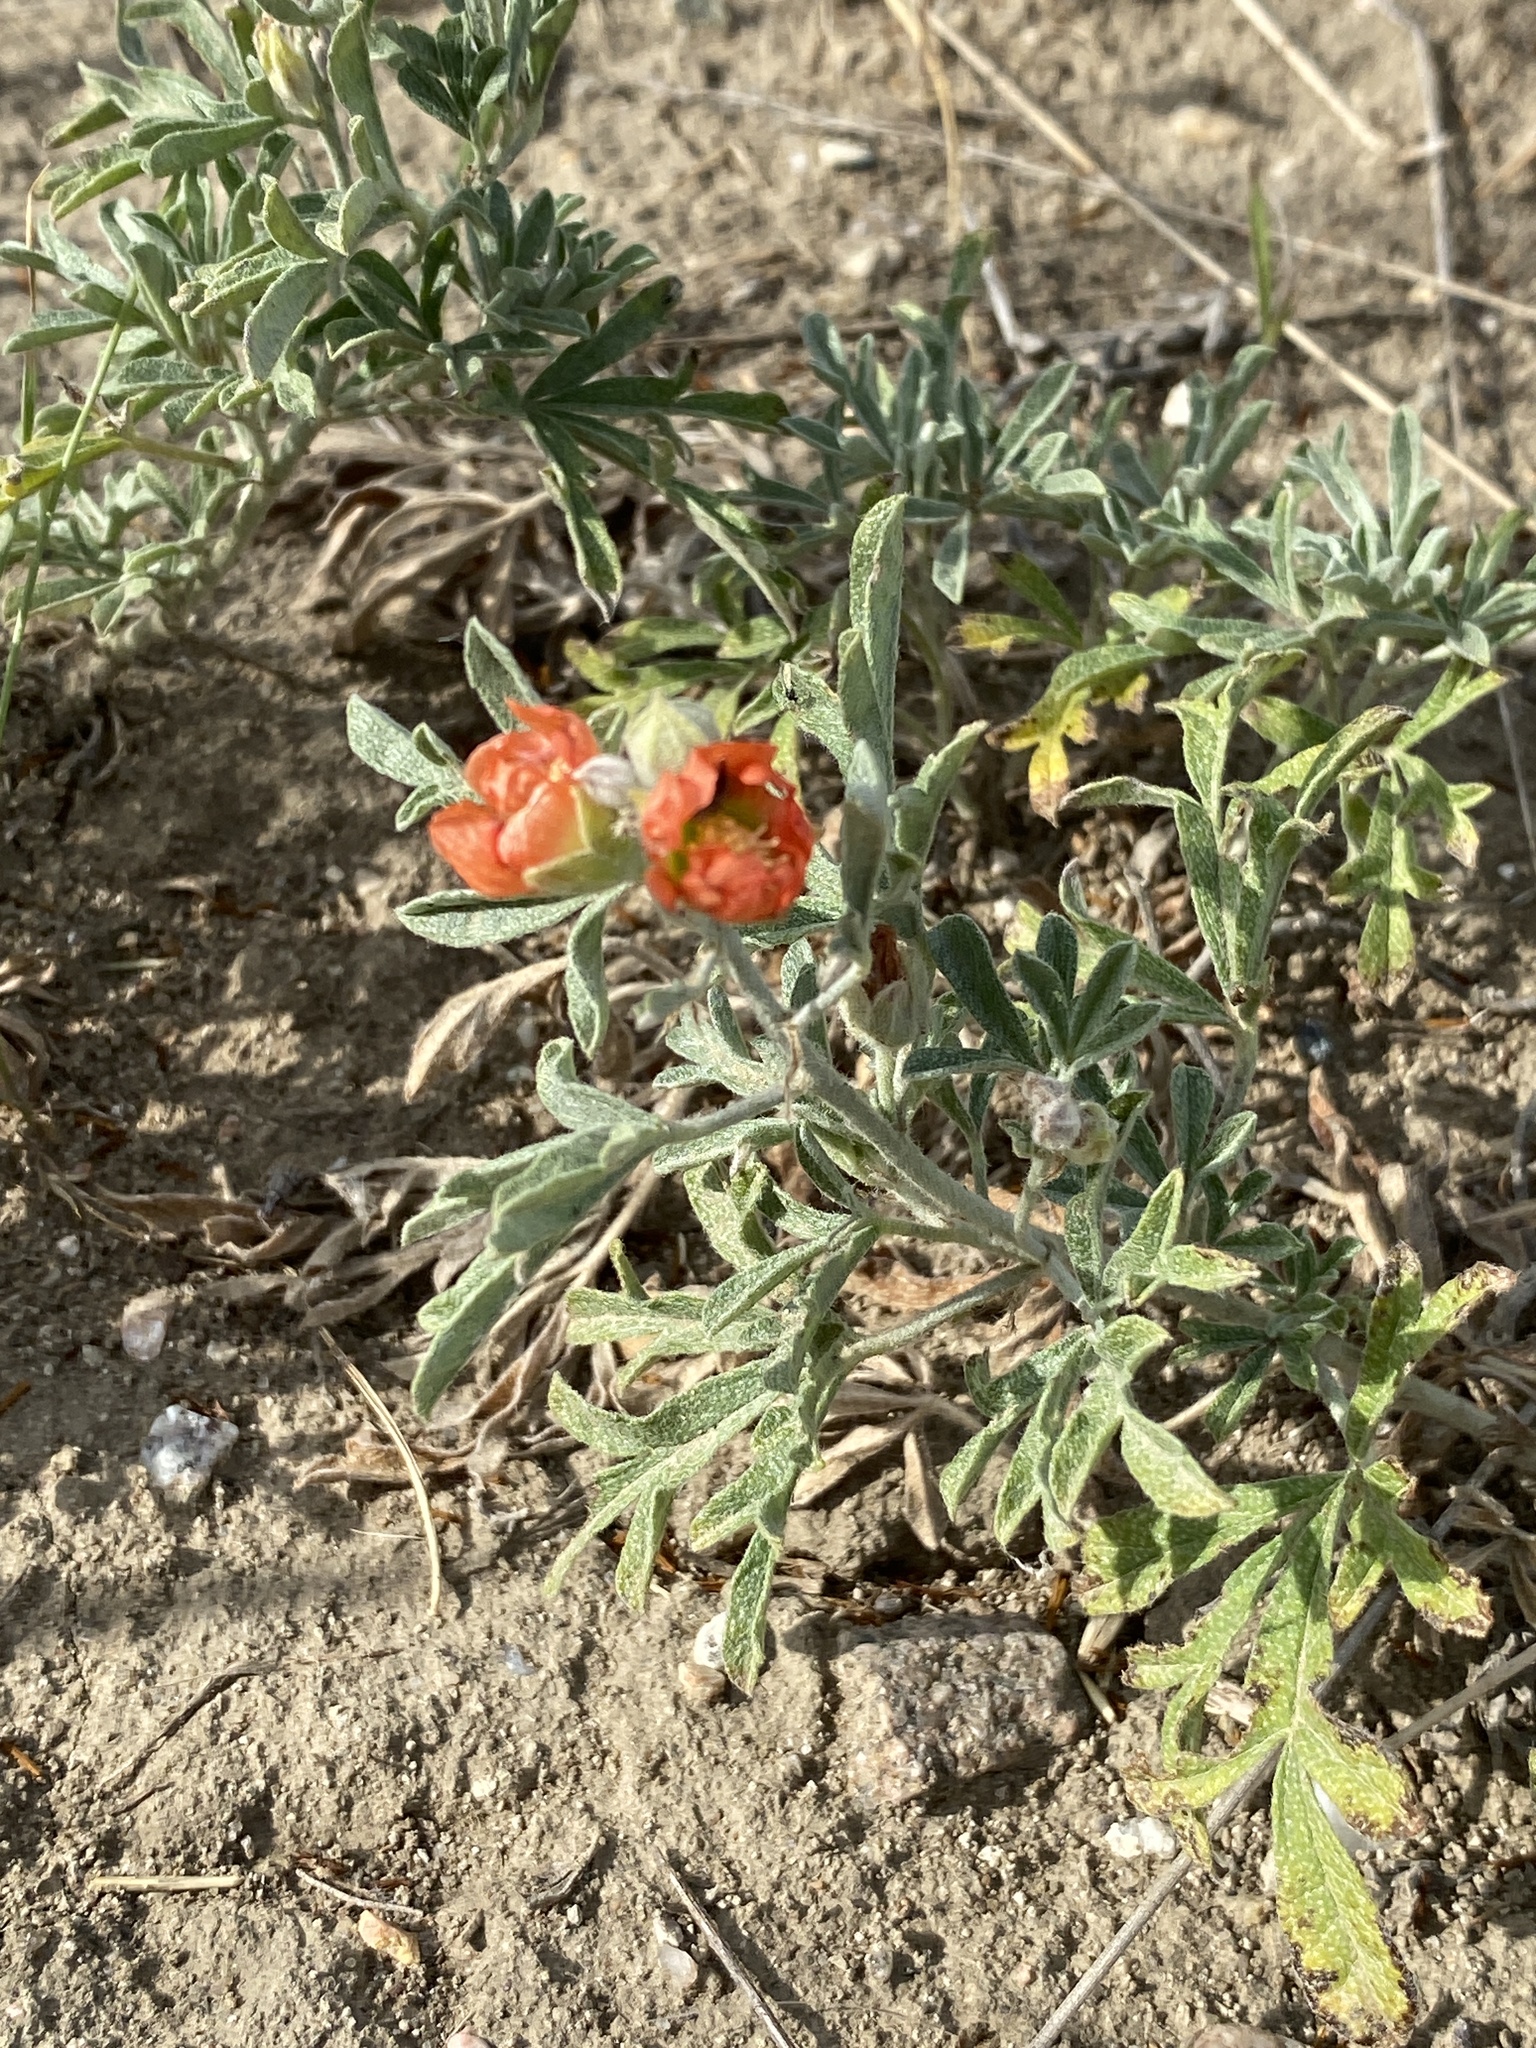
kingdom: Plantae
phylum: Tracheophyta
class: Magnoliopsida
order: Malvales
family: Malvaceae
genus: Sphaeralcea
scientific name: Sphaeralcea coccinea
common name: Moss-rose
